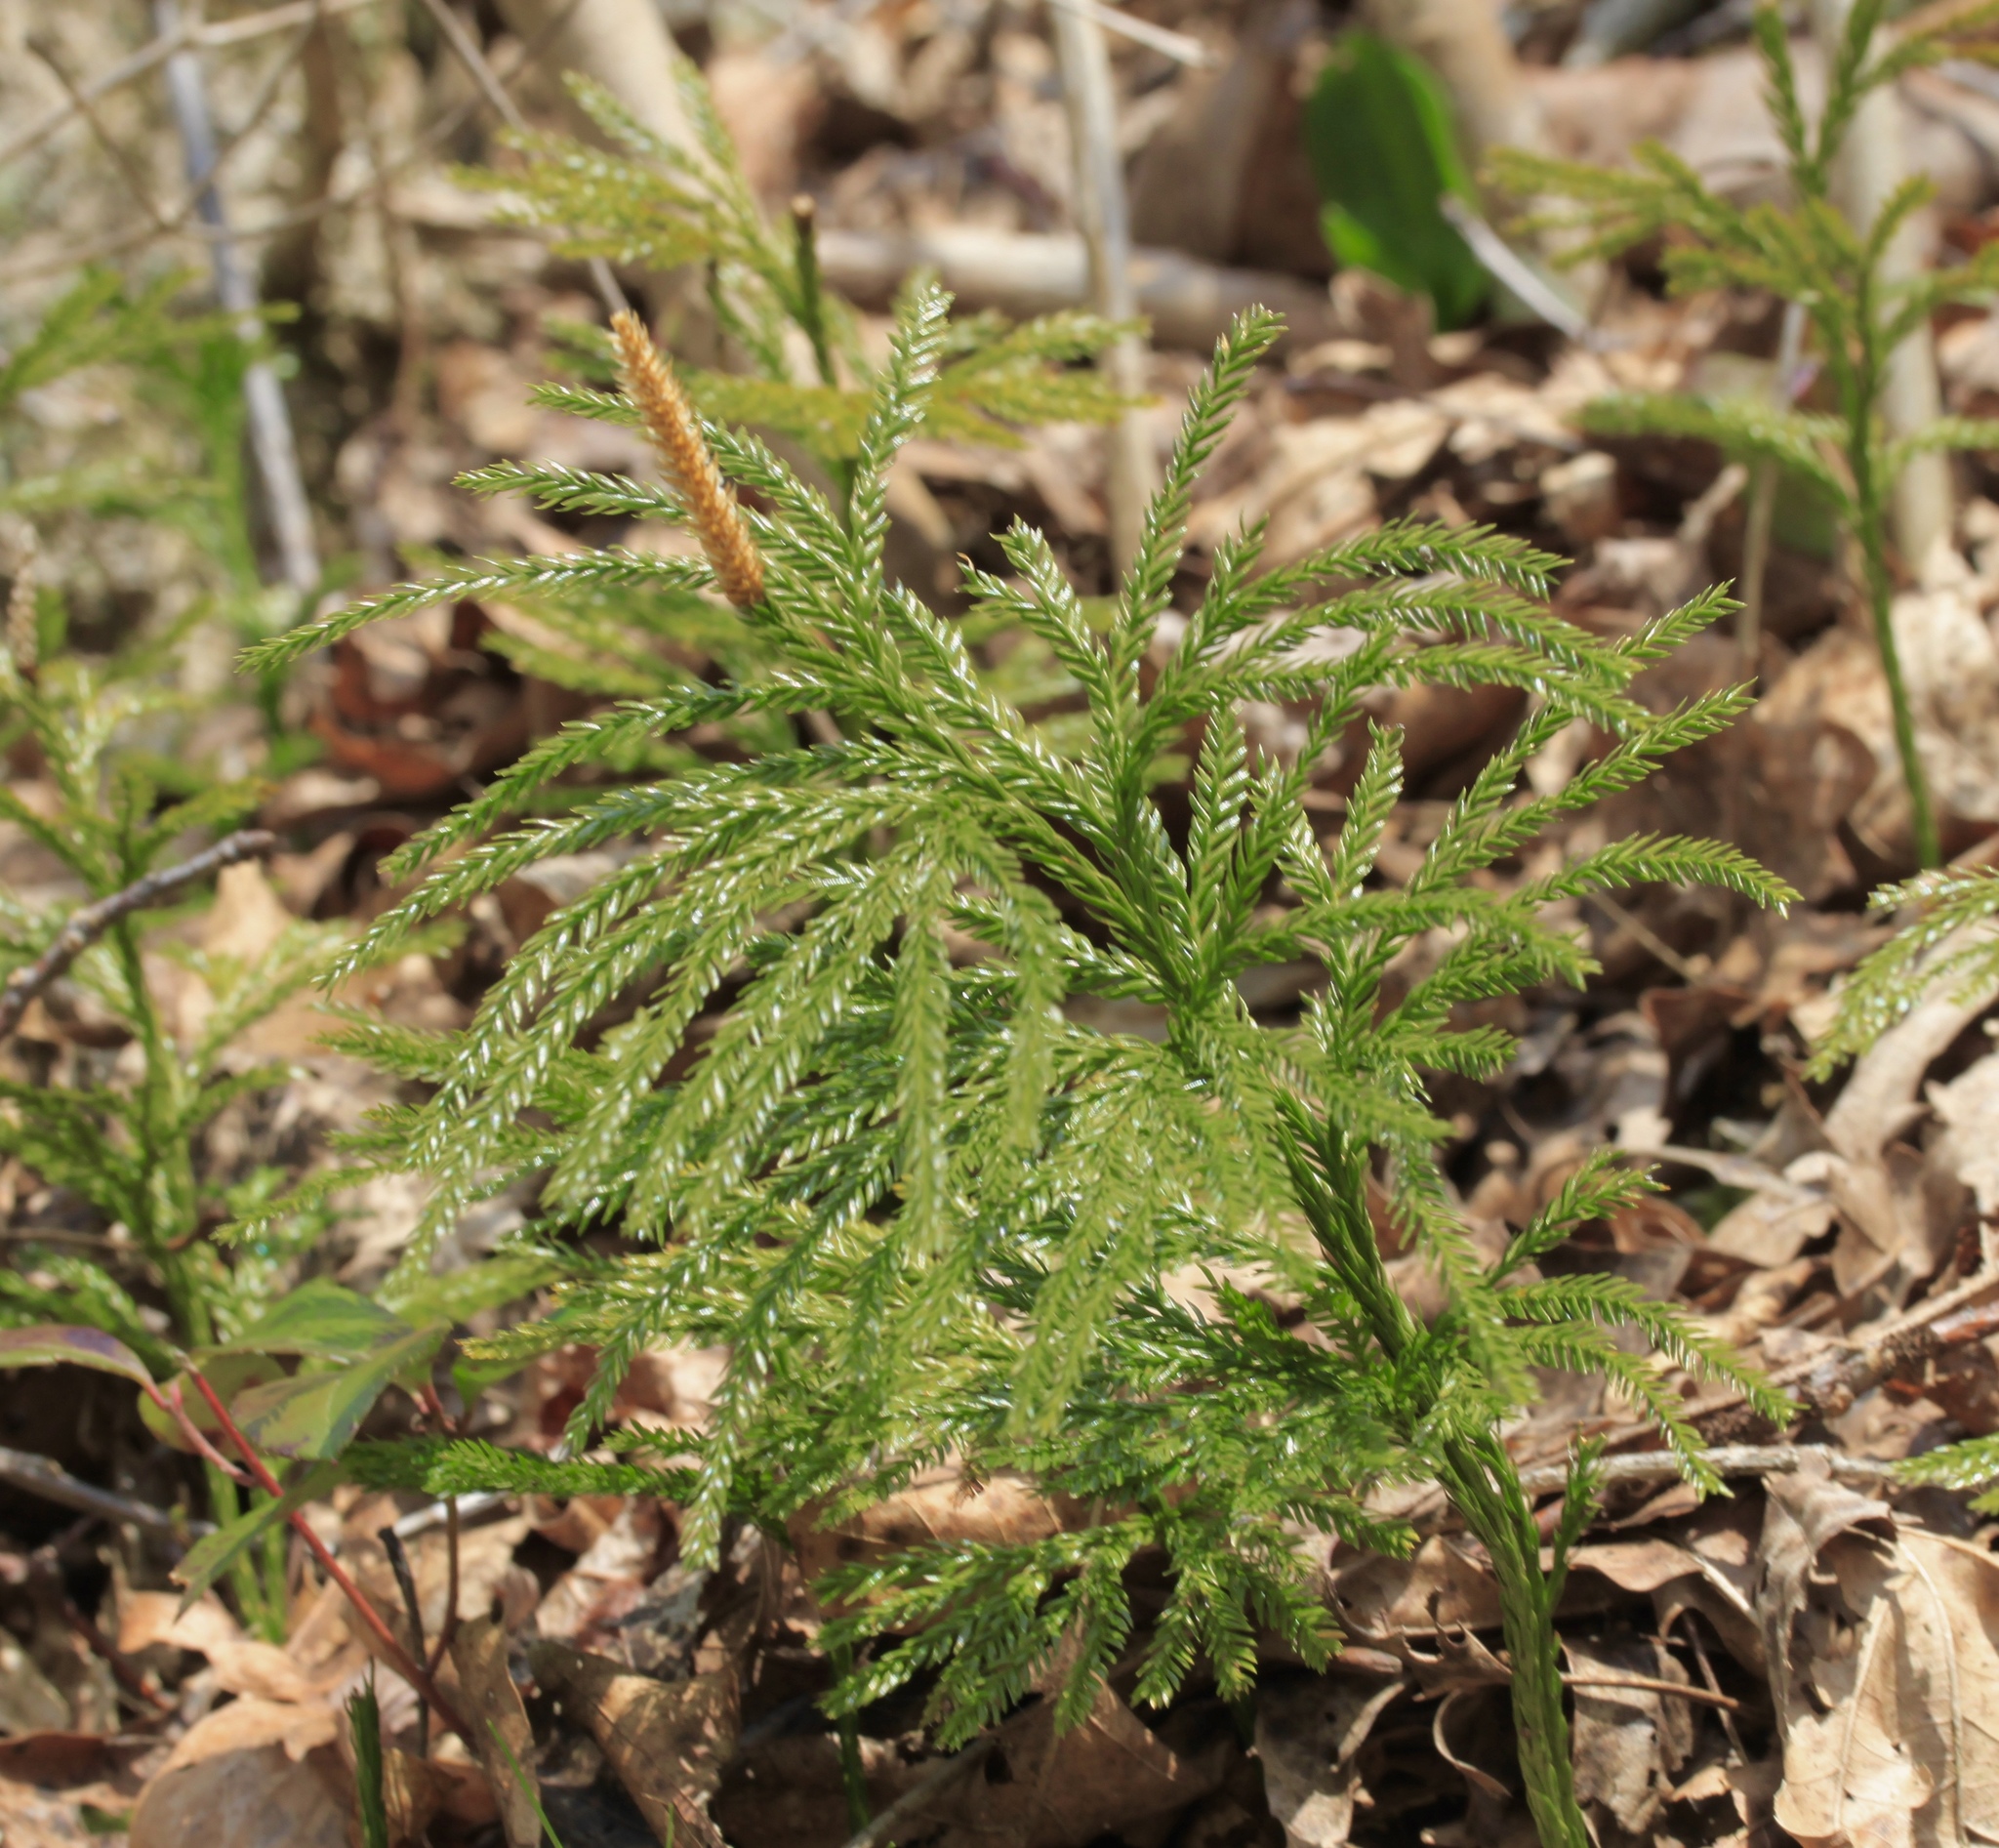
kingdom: Plantae
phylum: Tracheophyta
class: Lycopodiopsida
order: Lycopodiales
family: Lycopodiaceae
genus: Dendrolycopodium
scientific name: Dendrolycopodium obscurum
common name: Common ground-pine
